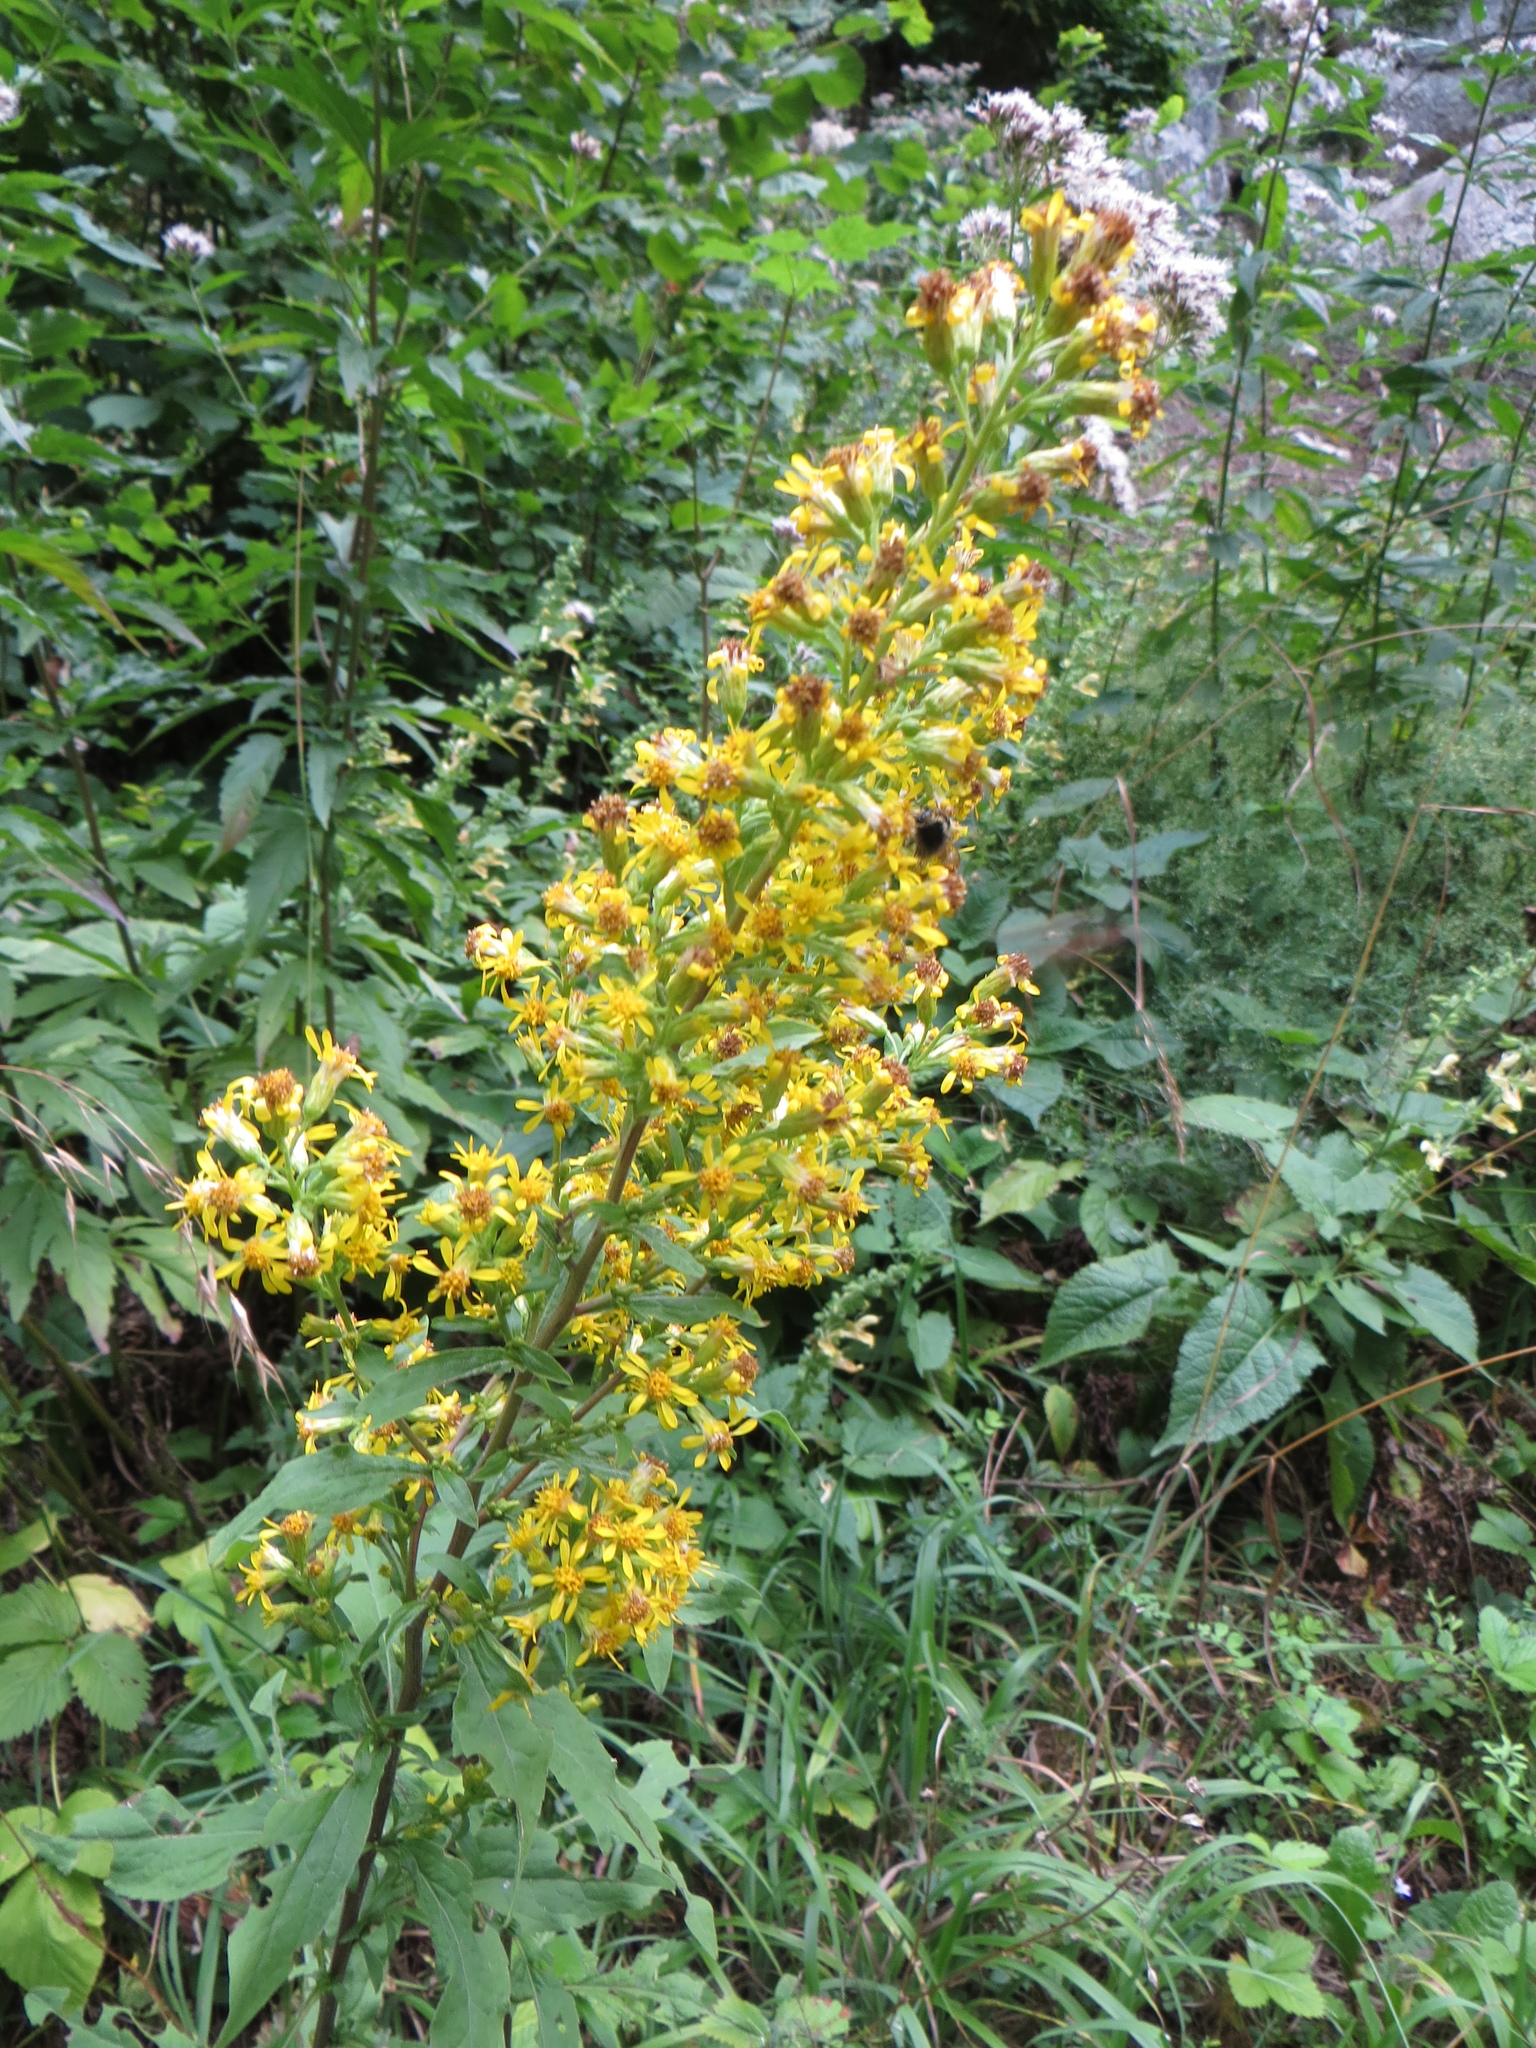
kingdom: Plantae
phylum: Tracheophyta
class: Magnoliopsida
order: Asterales
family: Asteraceae
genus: Solidago
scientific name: Solidago virgaurea
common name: Goldenrod
